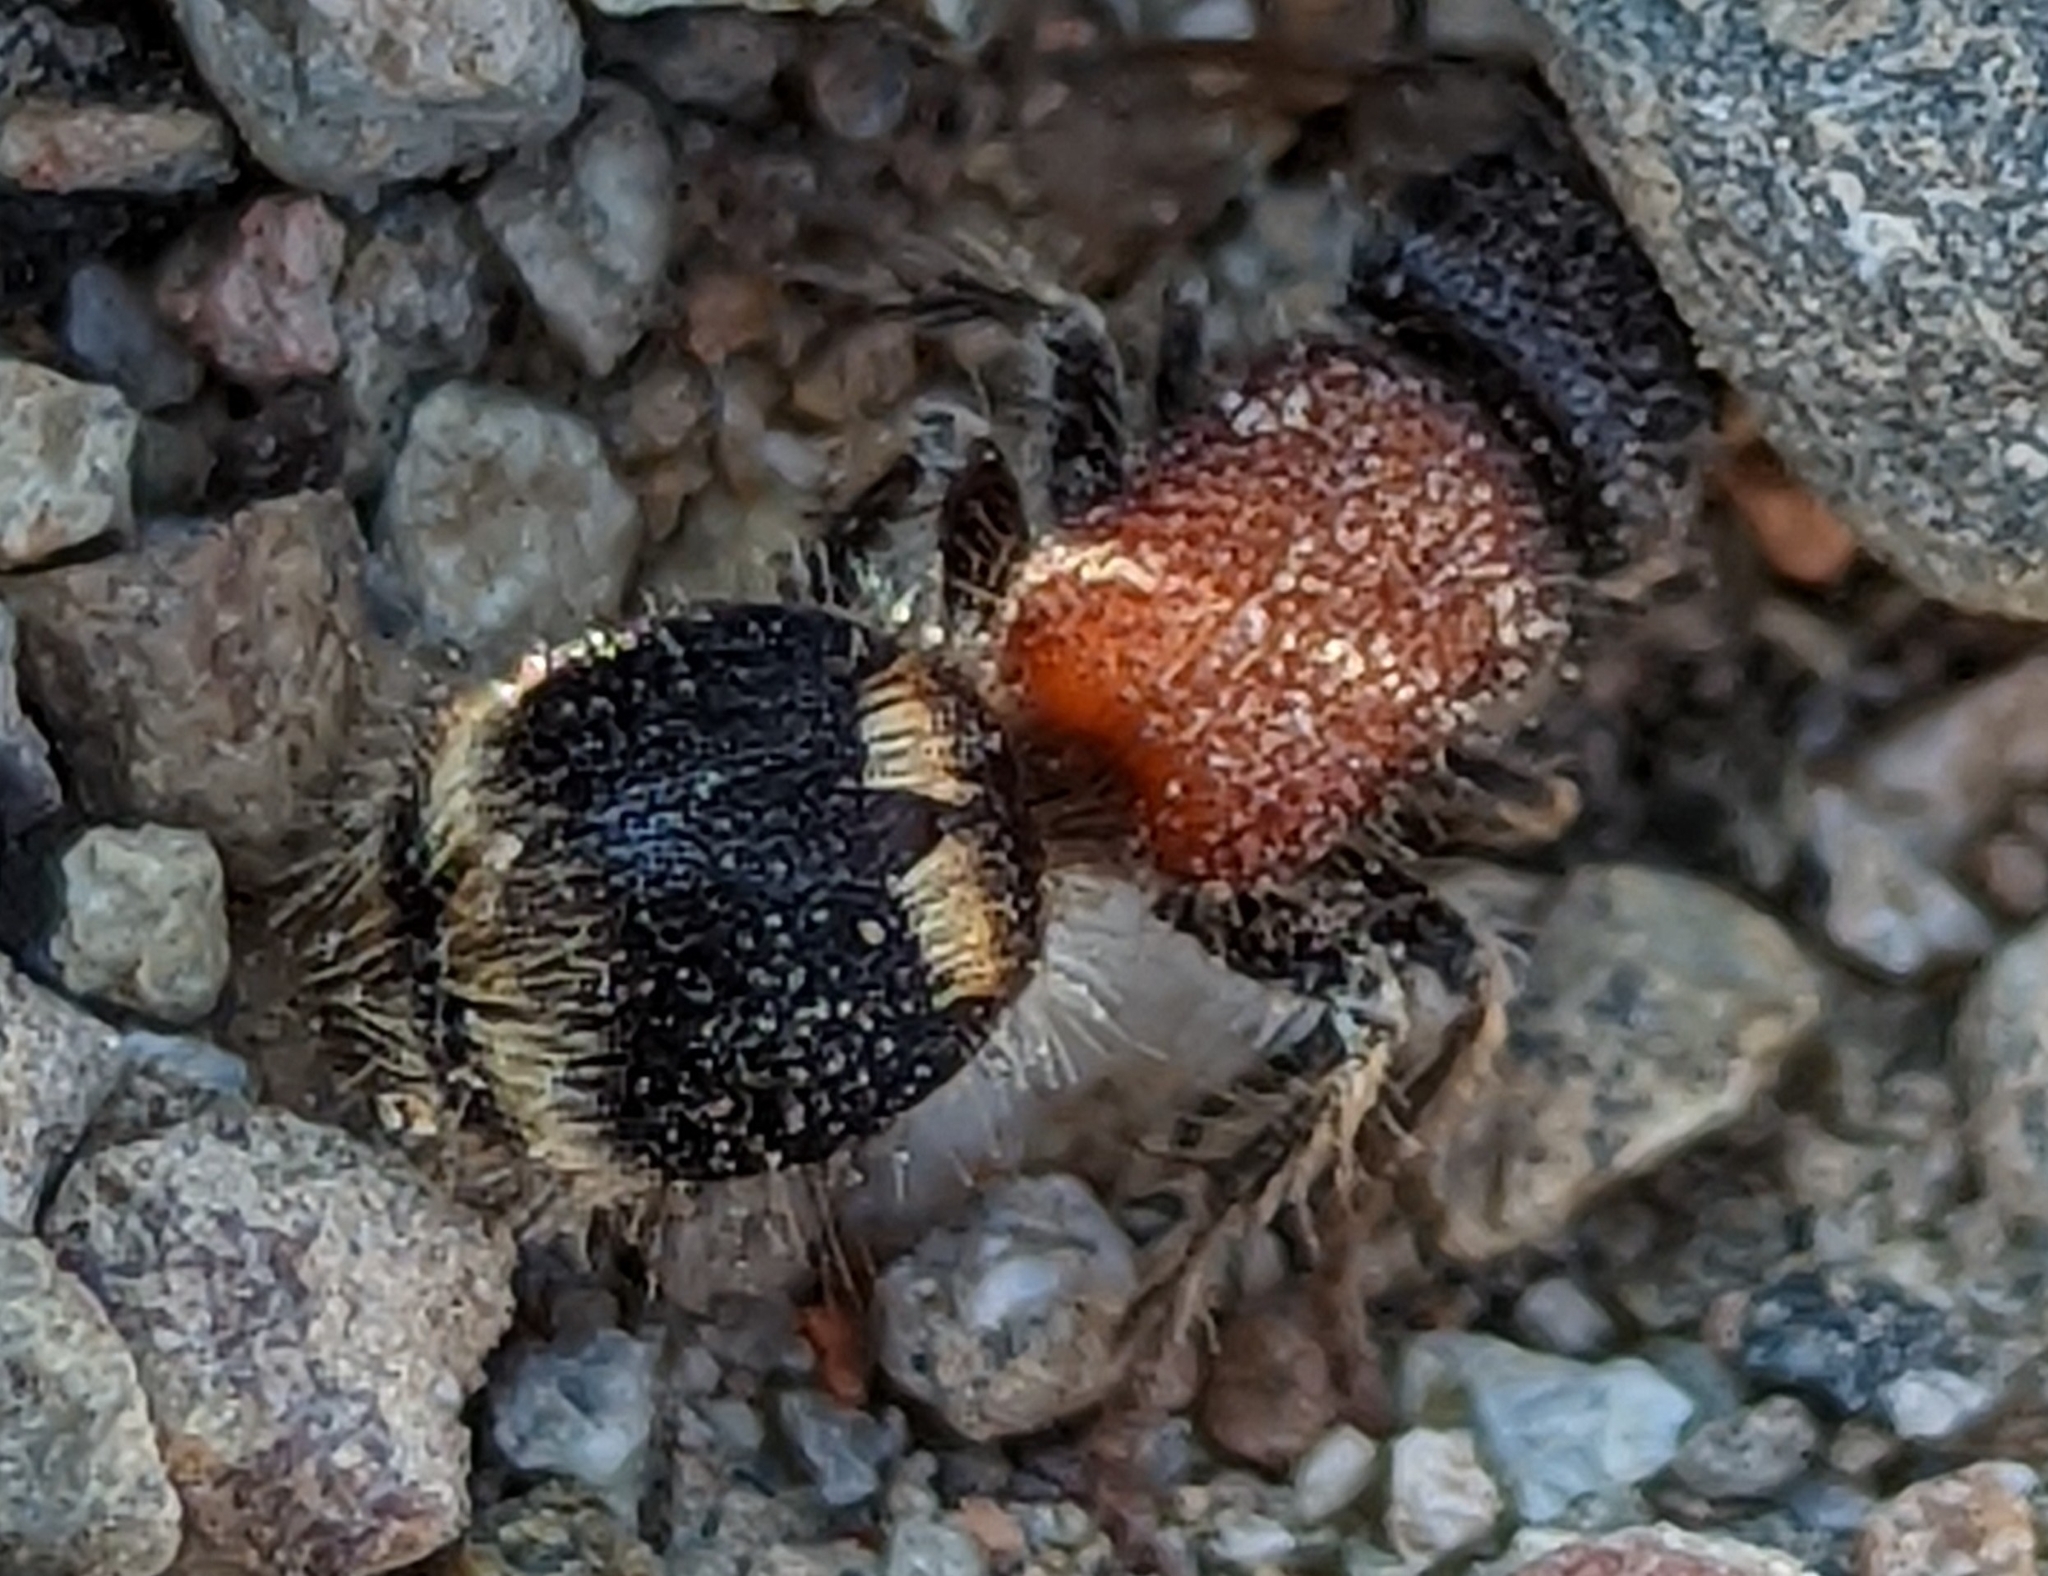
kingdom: Animalia
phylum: Arthropoda
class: Insecta
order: Hymenoptera
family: Mutillidae
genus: Tropidotilla
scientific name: Tropidotilla litoralis
